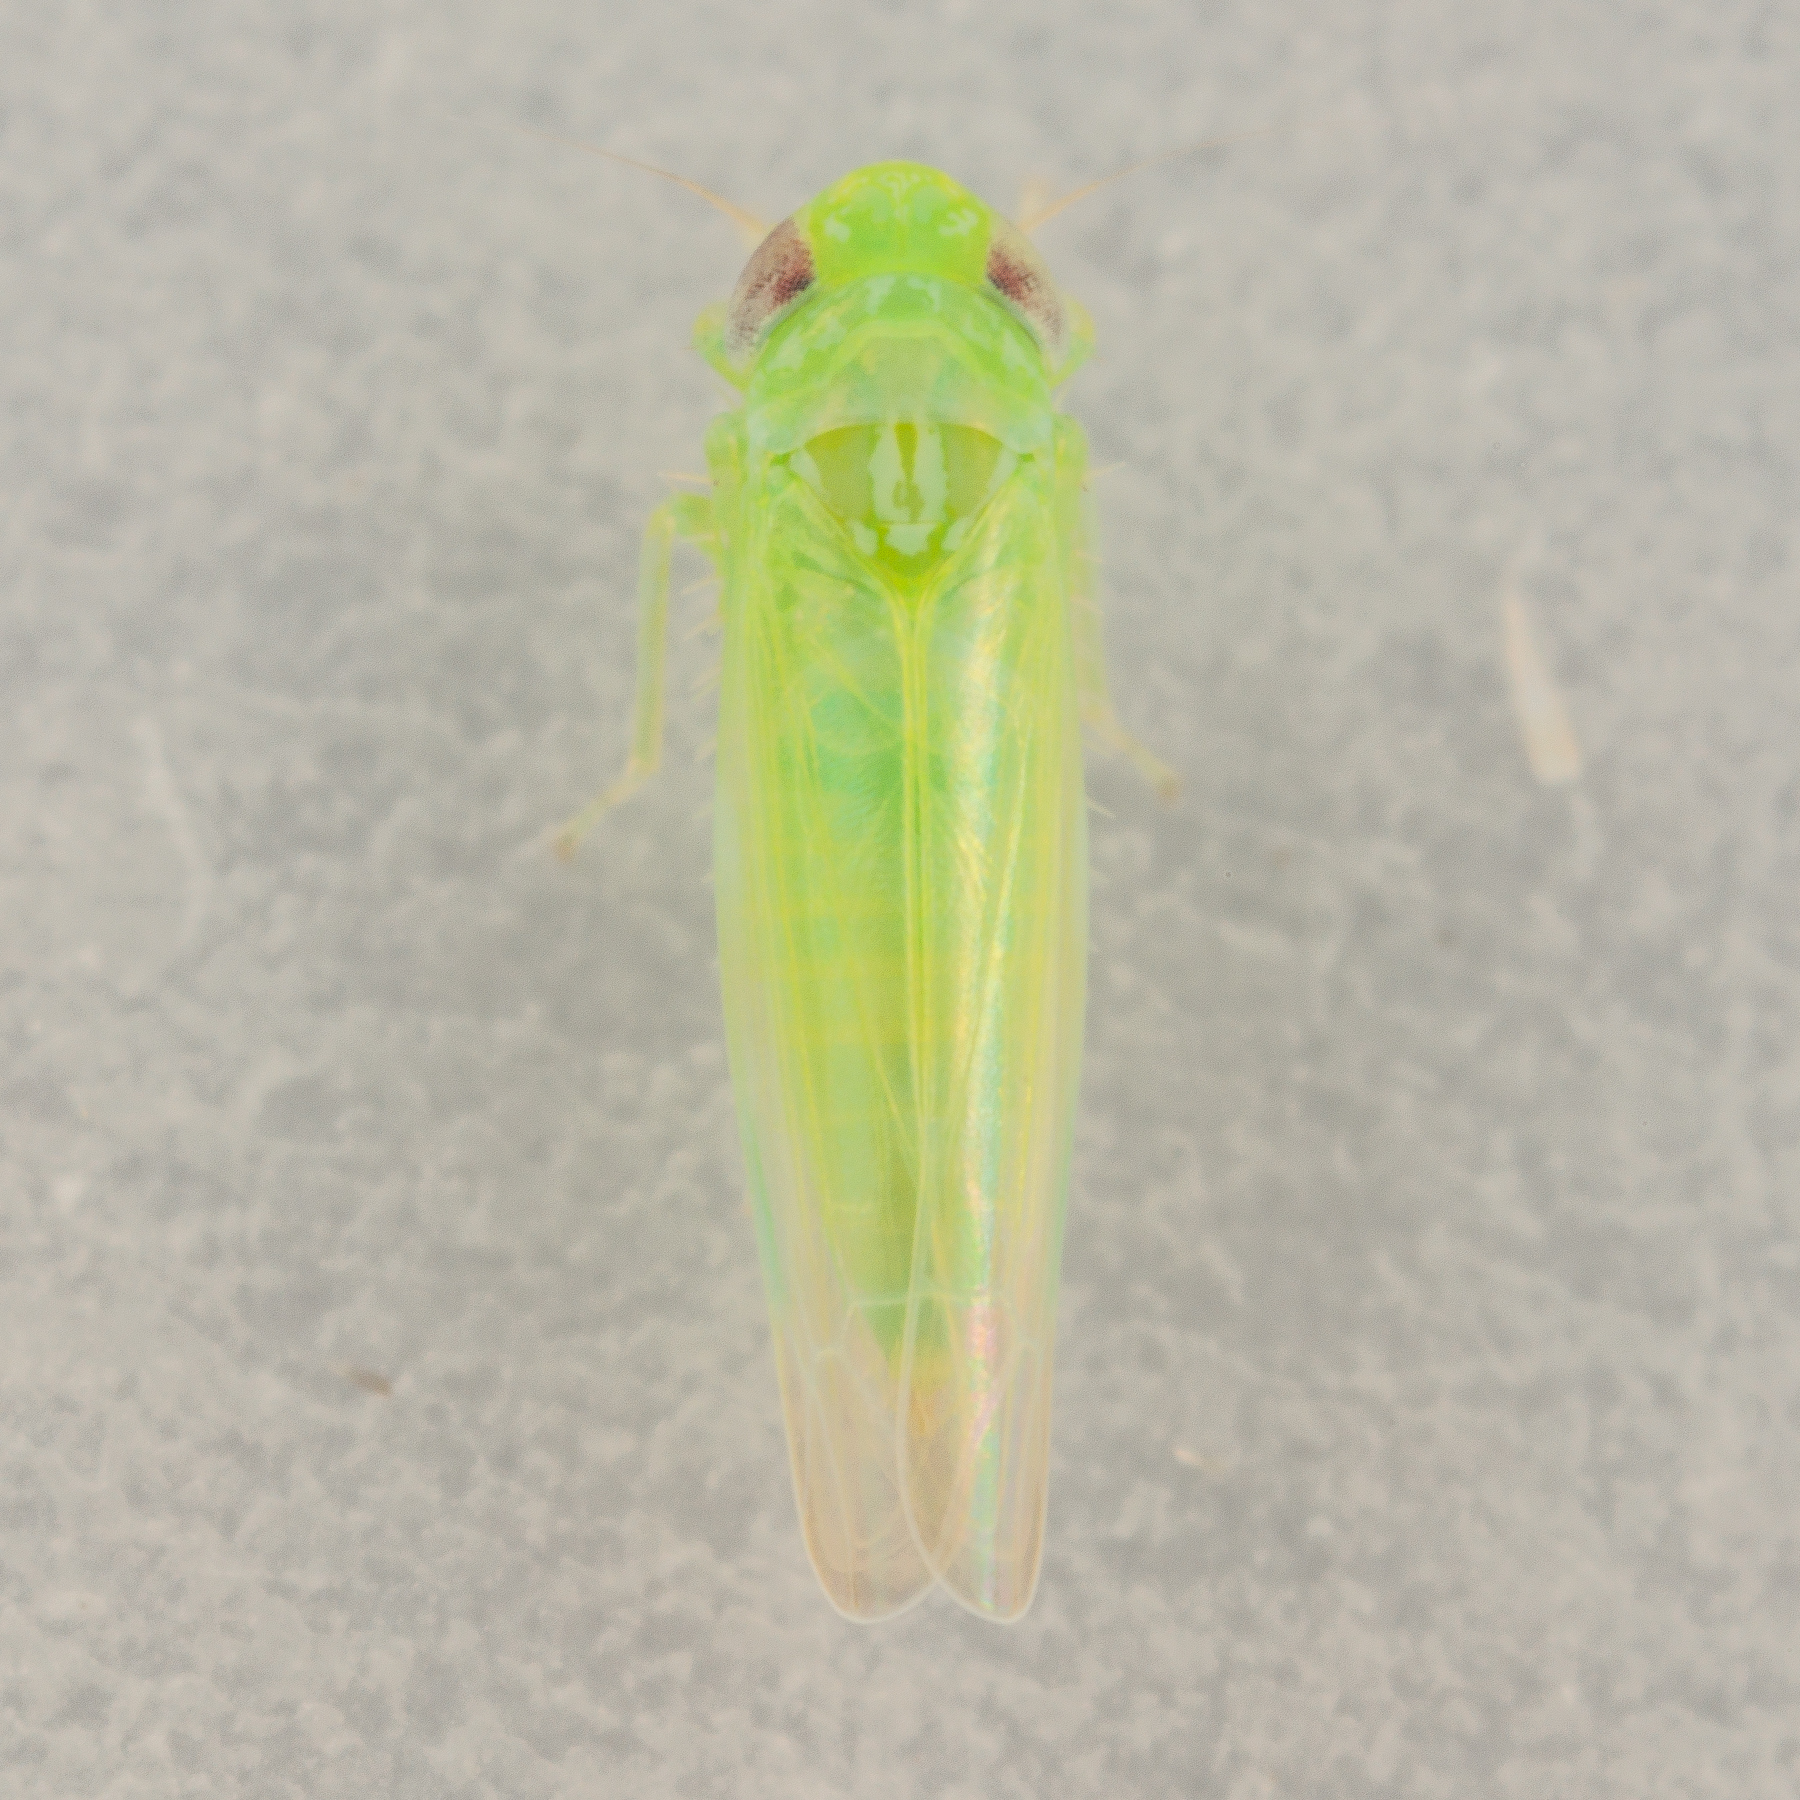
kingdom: Animalia
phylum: Arthropoda
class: Insecta
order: Hemiptera
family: Cicadellidae
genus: Empoasca
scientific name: Empoasca fabae
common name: Potato leafhopper
